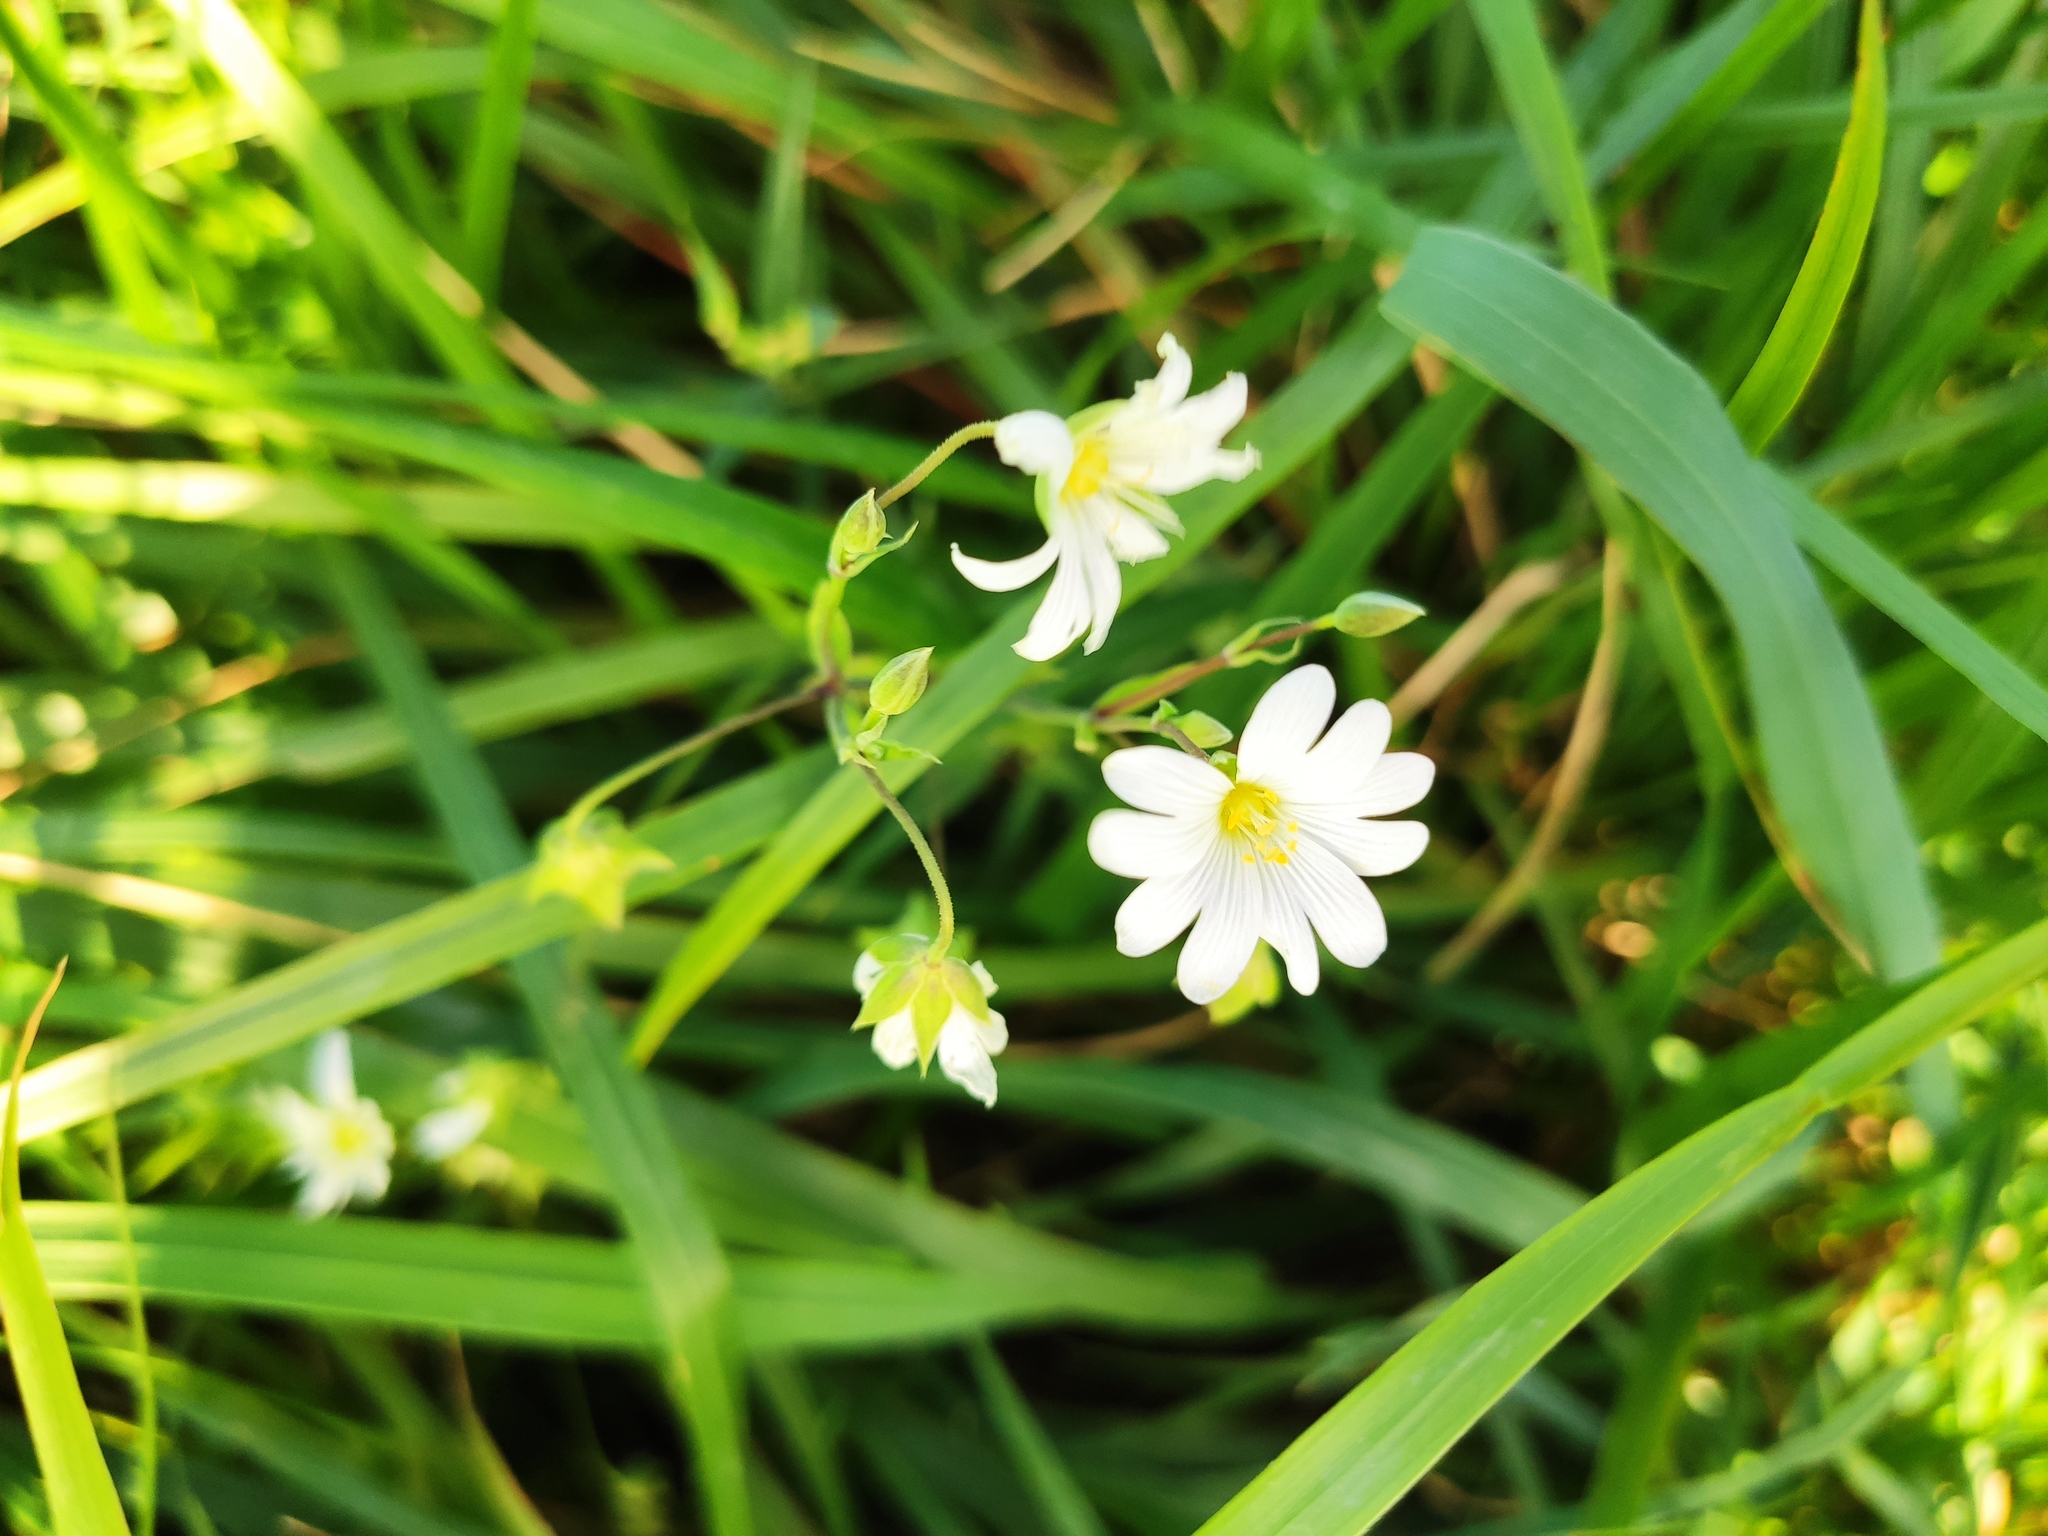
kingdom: Plantae
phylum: Tracheophyta
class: Magnoliopsida
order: Caryophyllales
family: Caryophyllaceae
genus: Rabelera
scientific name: Rabelera holostea
